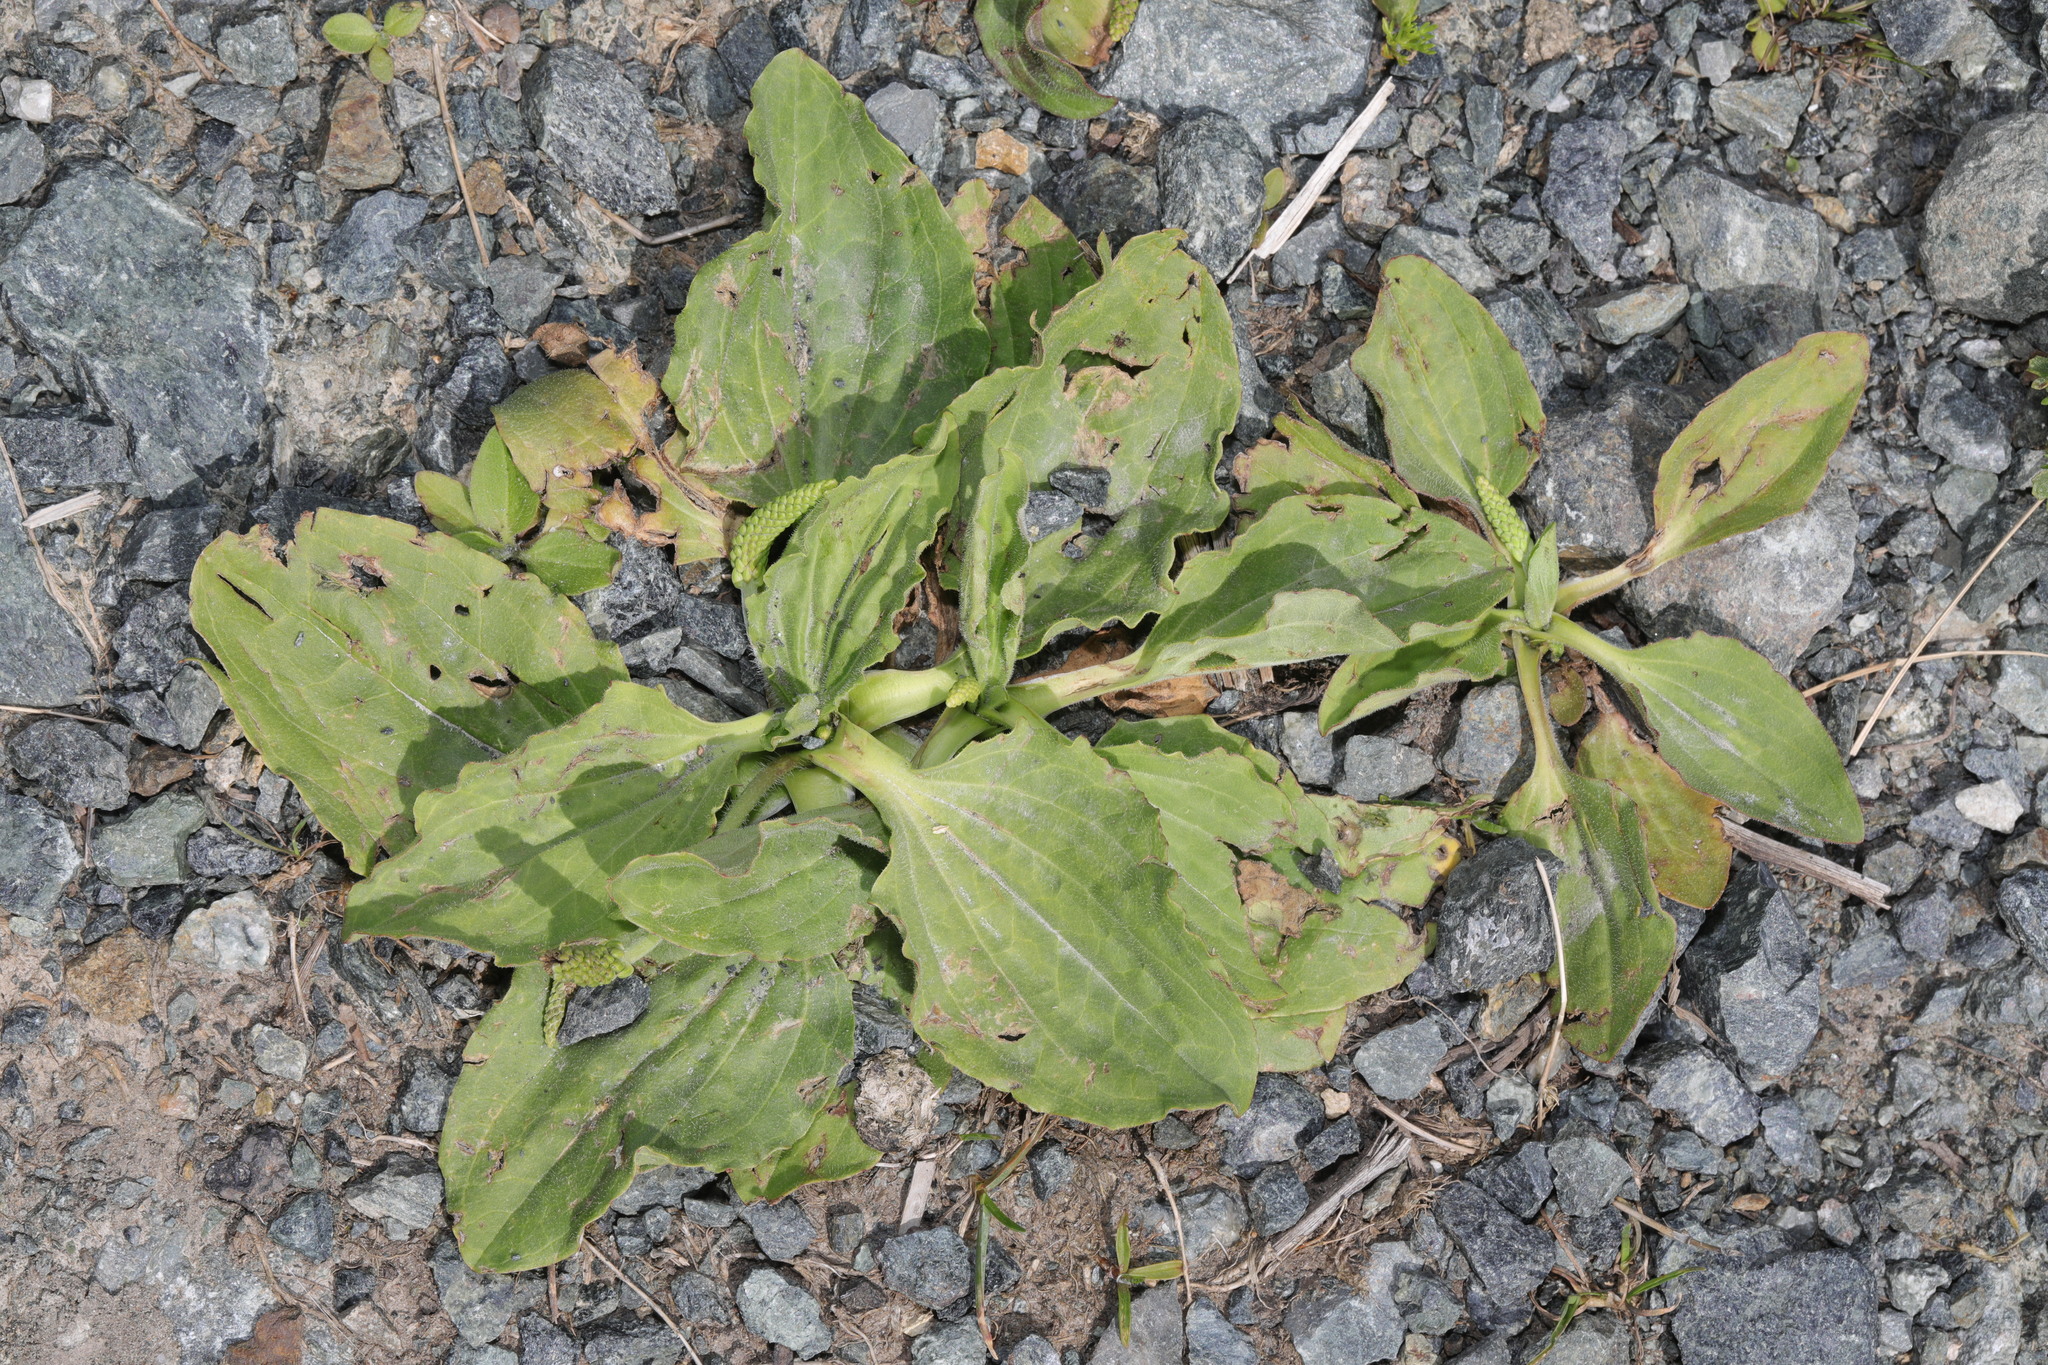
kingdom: Plantae
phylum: Tracheophyta
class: Magnoliopsida
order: Lamiales
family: Plantaginaceae
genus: Plantago
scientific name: Plantago major
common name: Common plantain
